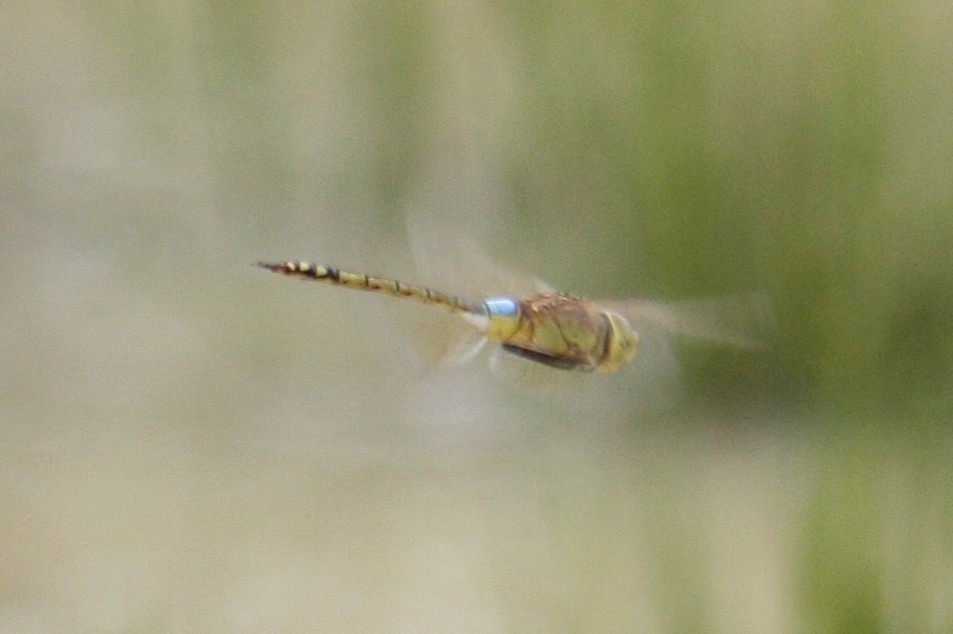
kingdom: Animalia
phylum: Arthropoda
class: Insecta
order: Odonata
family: Aeshnidae
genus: Anax
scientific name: Anax ephippiger
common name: Vagrant emperor
